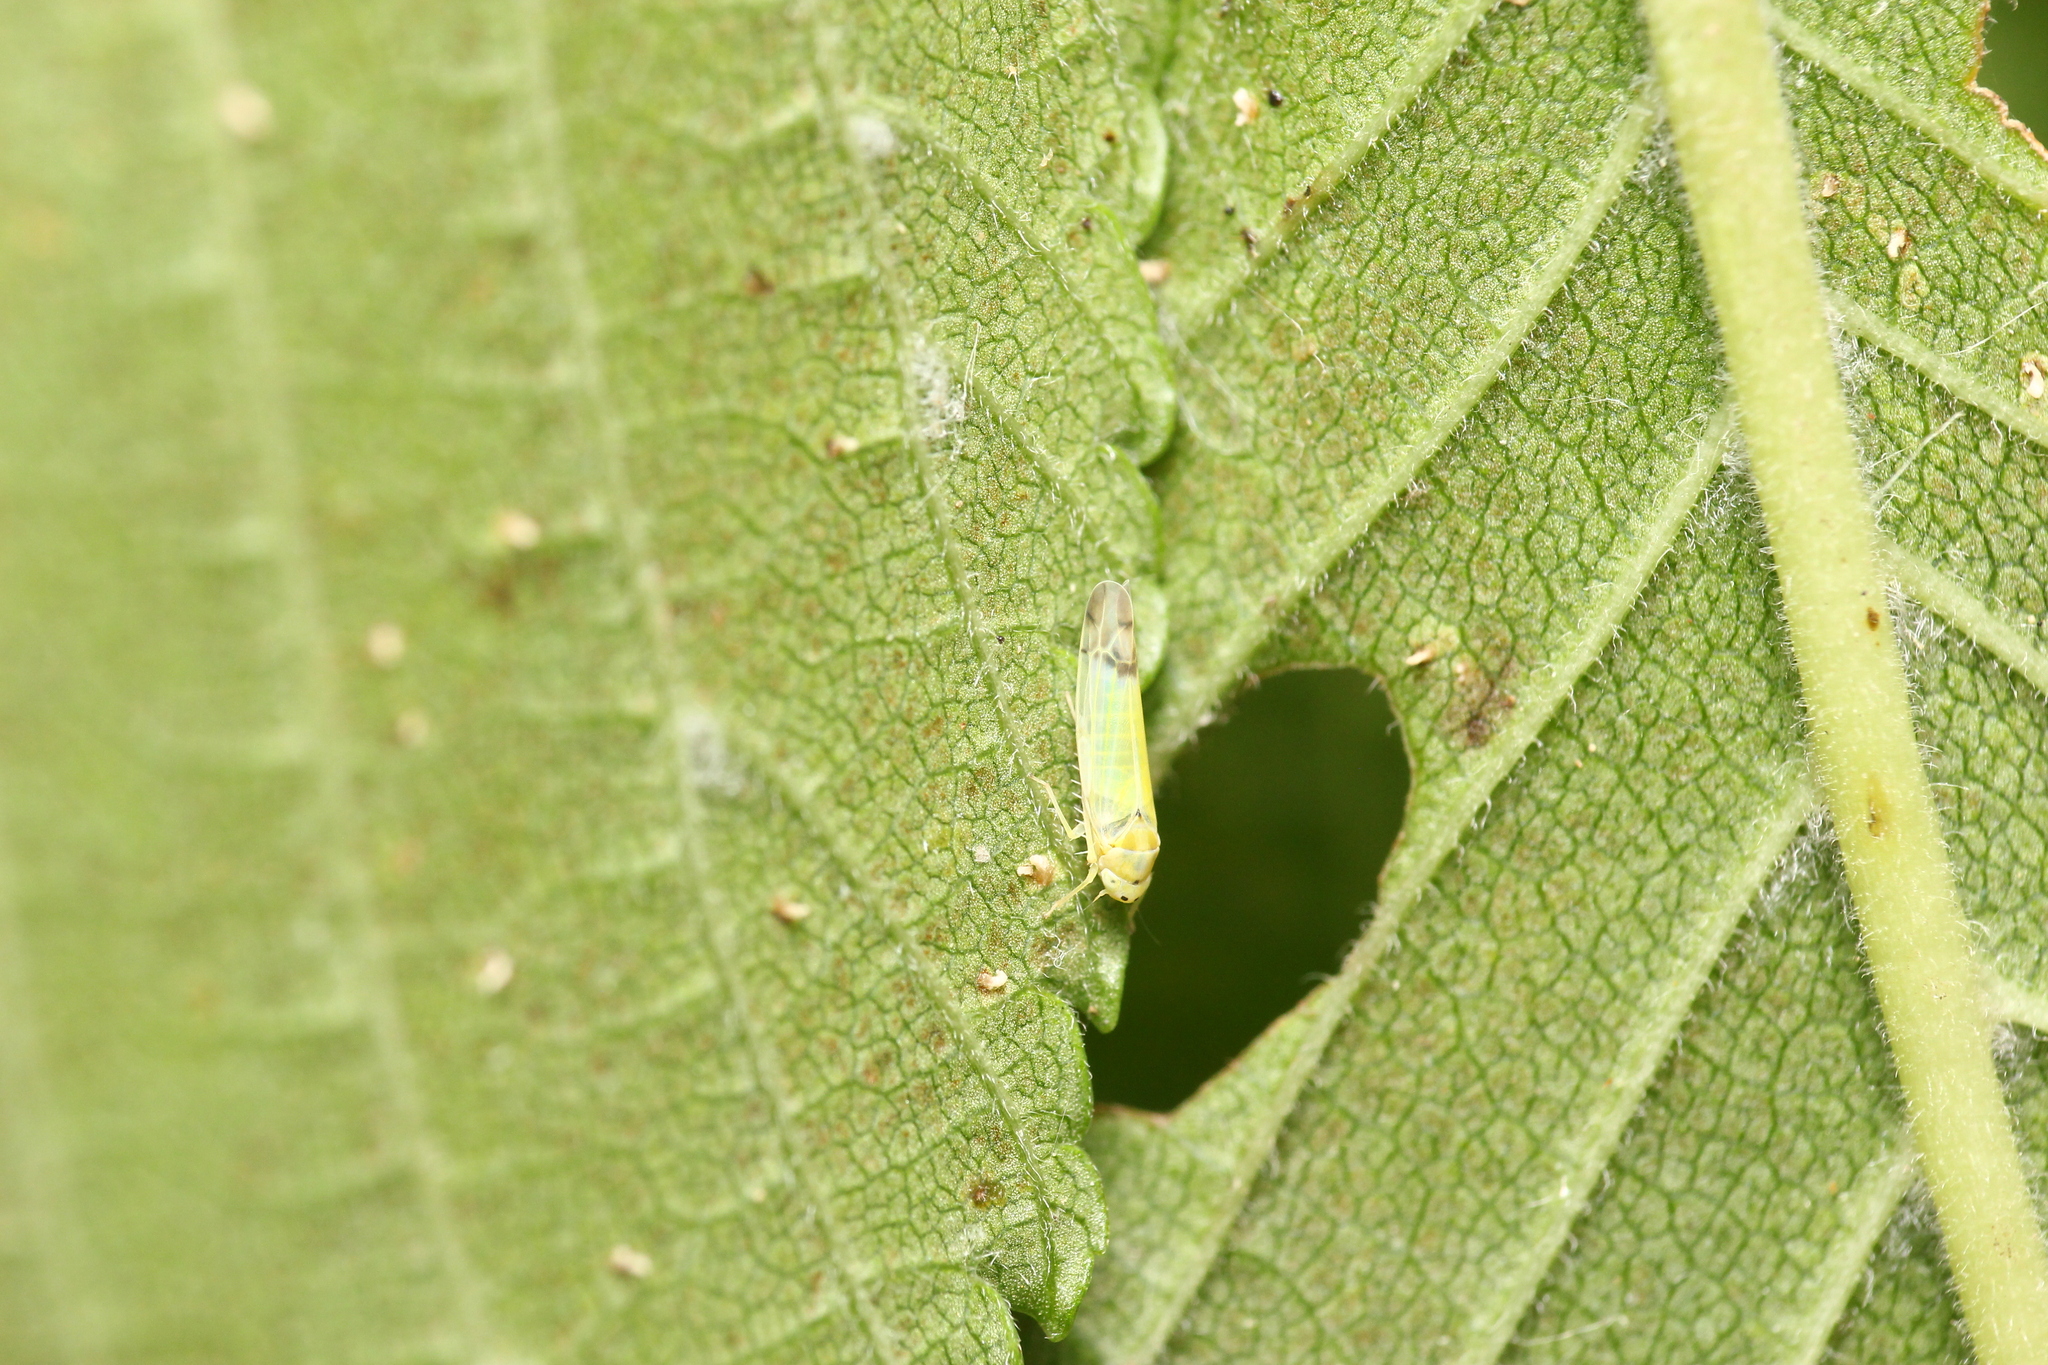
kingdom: Animalia
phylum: Arthropoda
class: Insecta
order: Hemiptera
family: Cicadellidae
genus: Ribautiana
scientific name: Ribautiana ulmi
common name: European elm leafhopper
